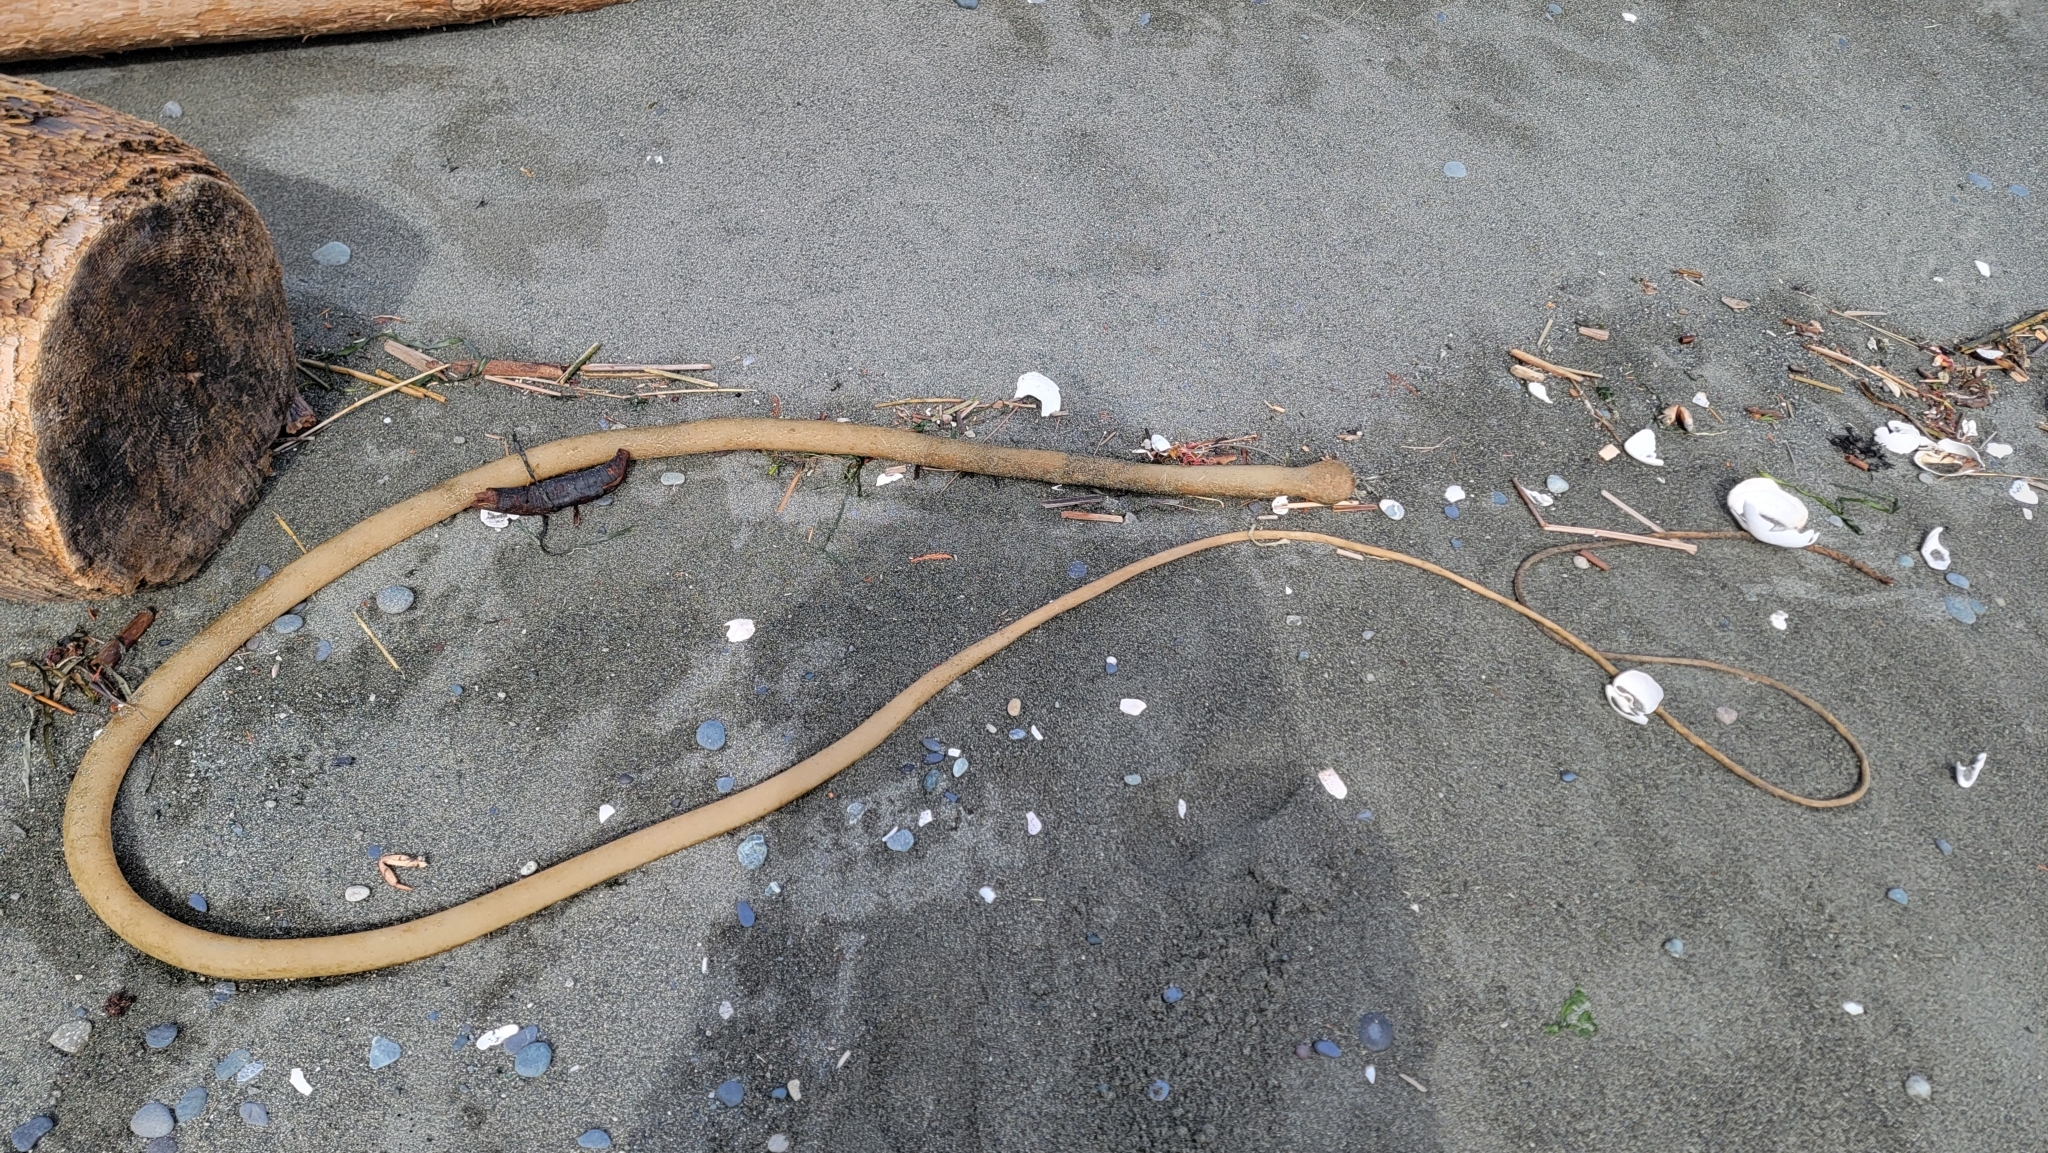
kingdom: Chromista
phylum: Ochrophyta
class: Phaeophyceae
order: Laminariales
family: Laminariaceae
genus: Nereocystis
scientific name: Nereocystis luetkeana
